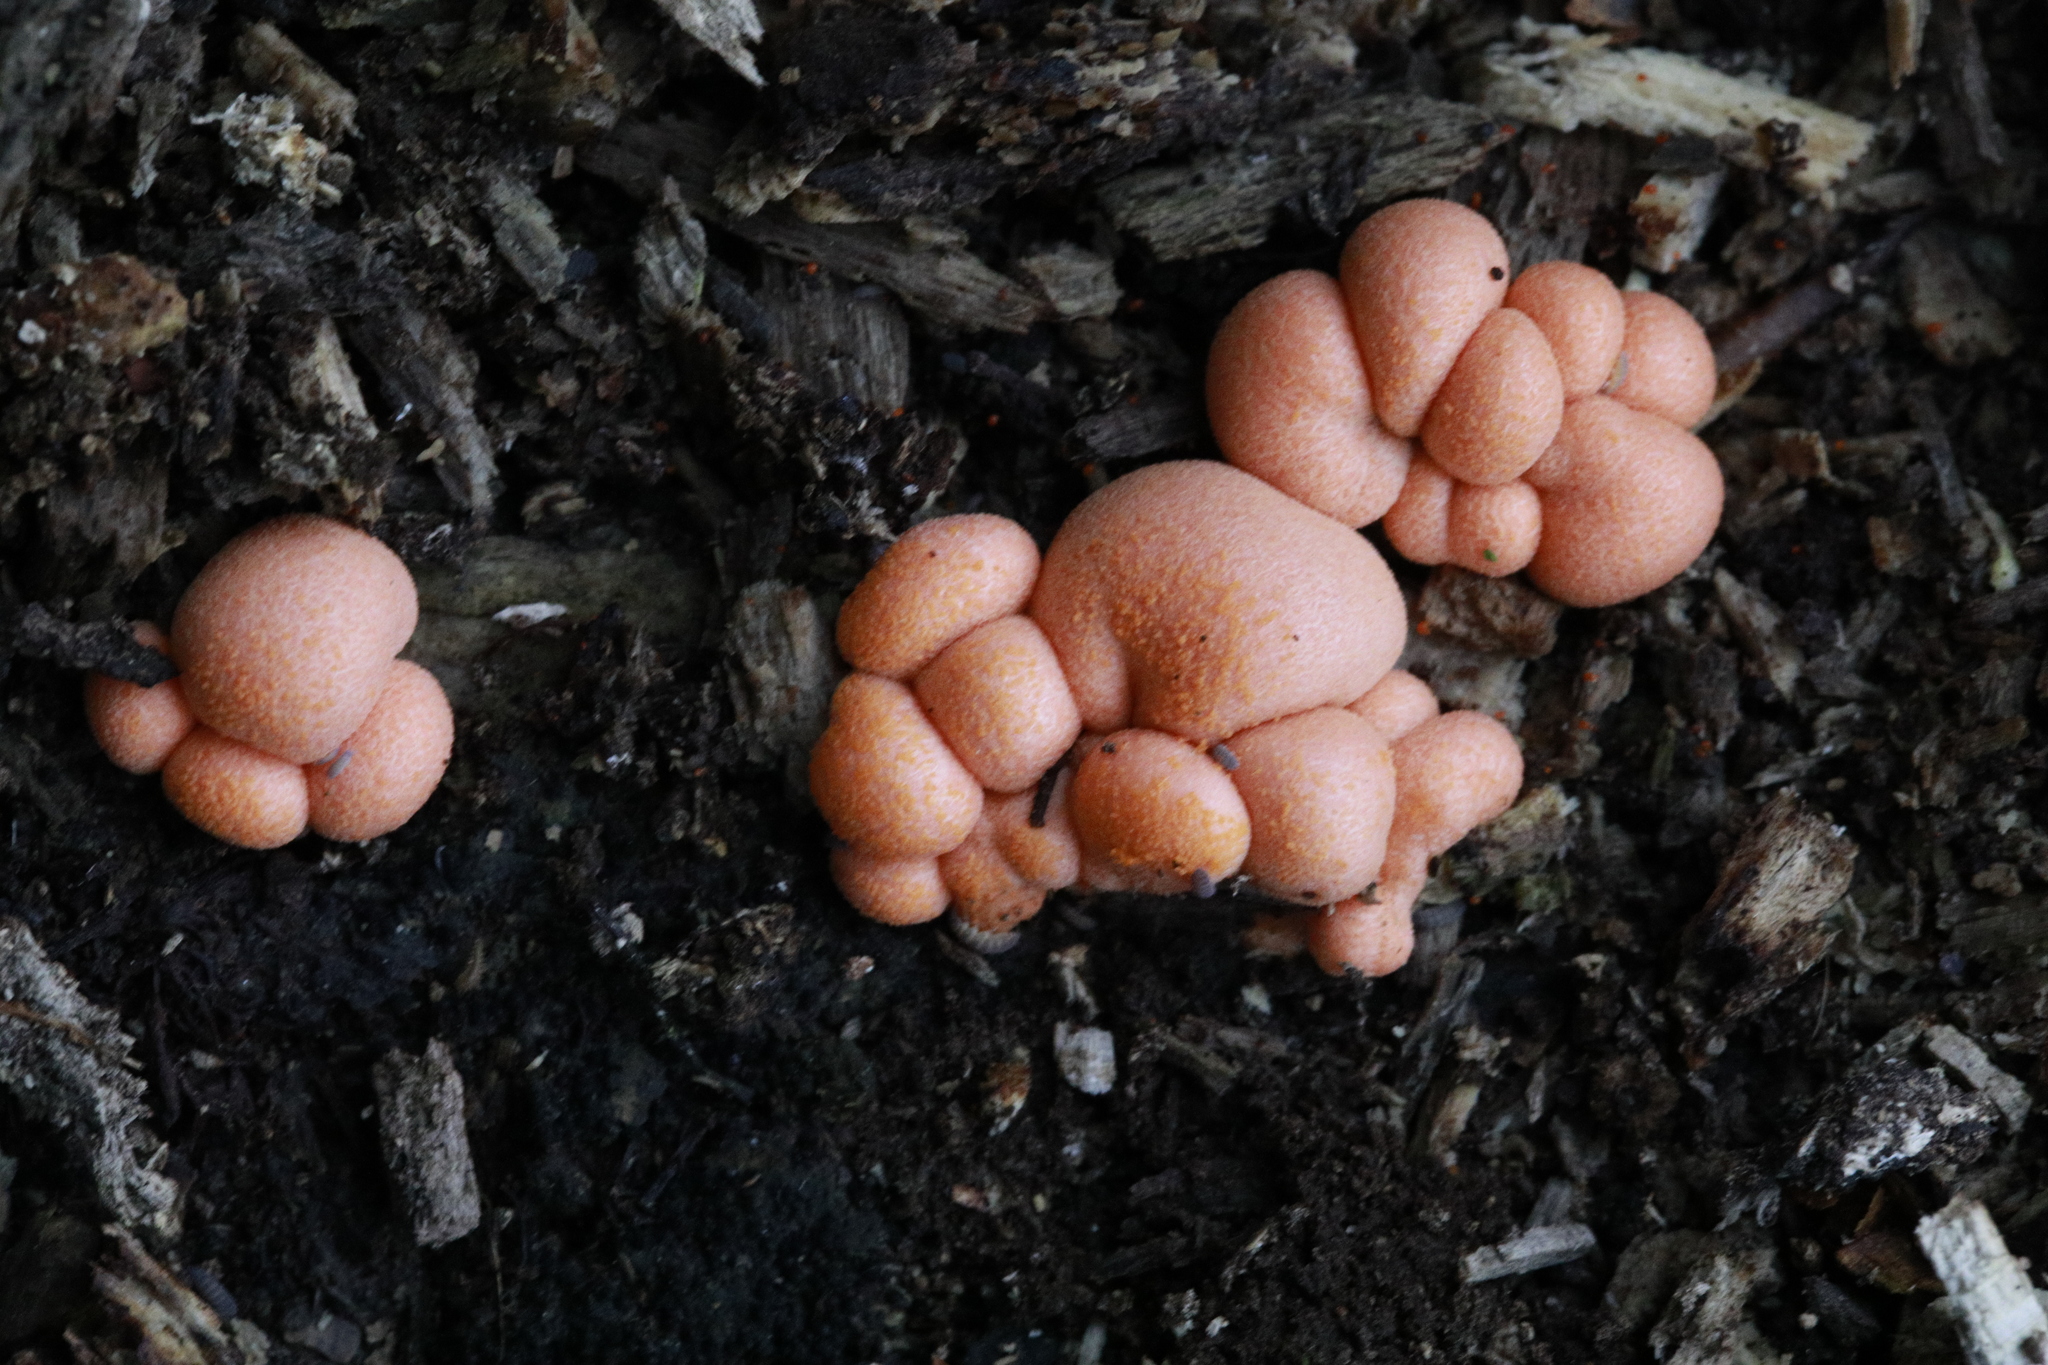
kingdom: Protozoa
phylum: Mycetozoa
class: Myxomycetes
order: Cribrariales
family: Tubiferaceae
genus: Lycogala
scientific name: Lycogala epidendrum
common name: Wolf's milk
